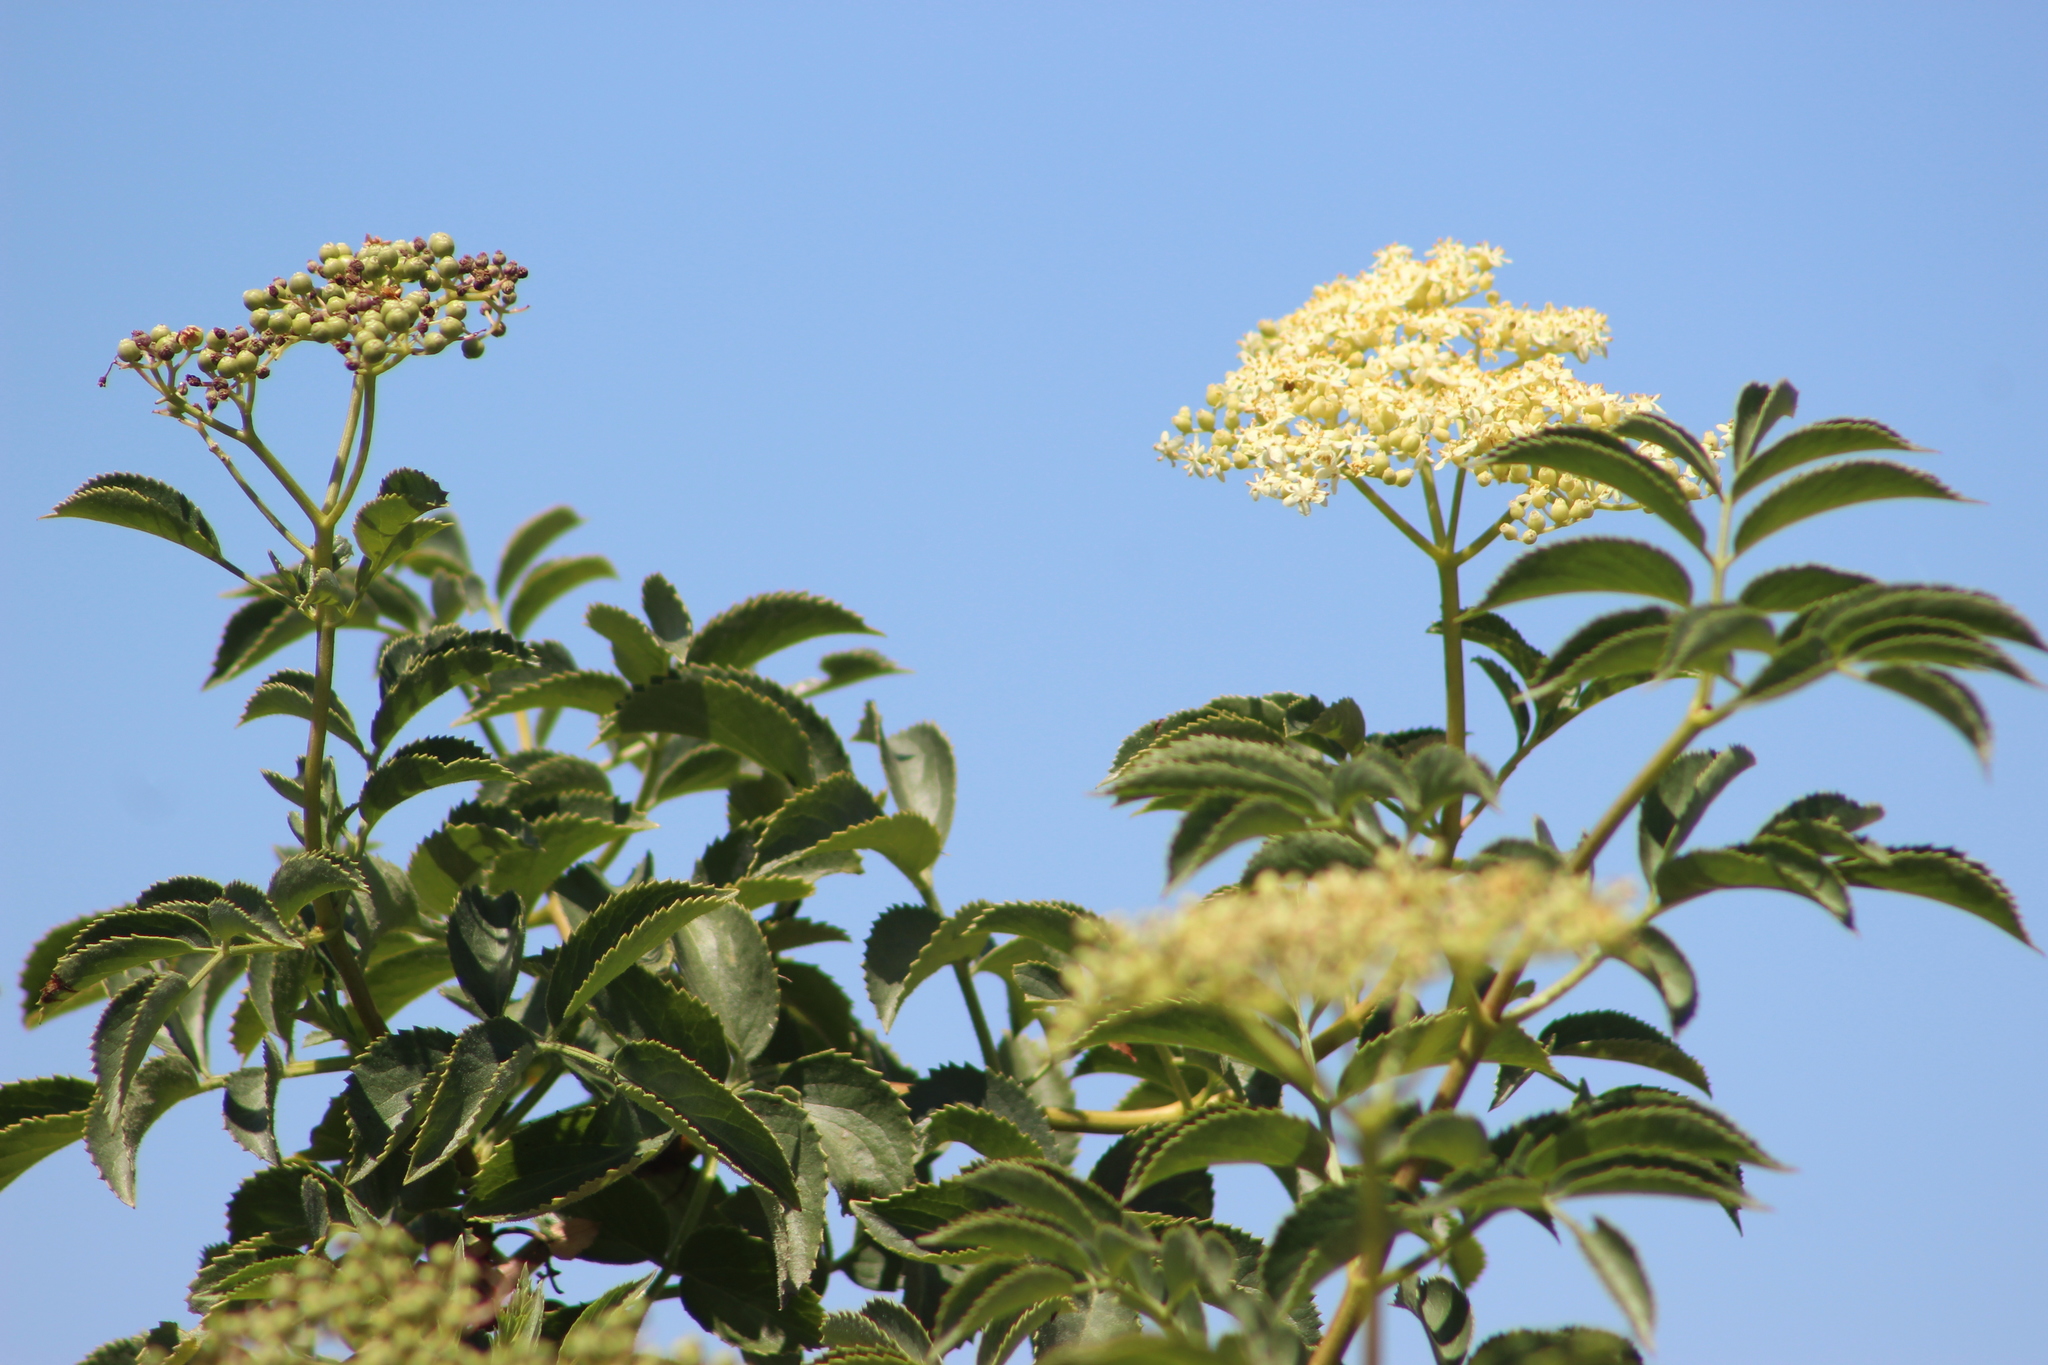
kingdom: Plantae
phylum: Tracheophyta
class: Magnoliopsida
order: Dipsacales
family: Viburnaceae
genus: Sambucus
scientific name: Sambucus cerulea
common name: Blue elder
